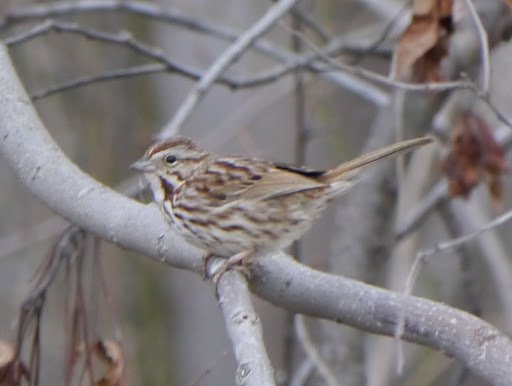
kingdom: Animalia
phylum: Chordata
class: Aves
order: Passeriformes
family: Passerellidae
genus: Melospiza
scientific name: Melospiza melodia
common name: Song sparrow
